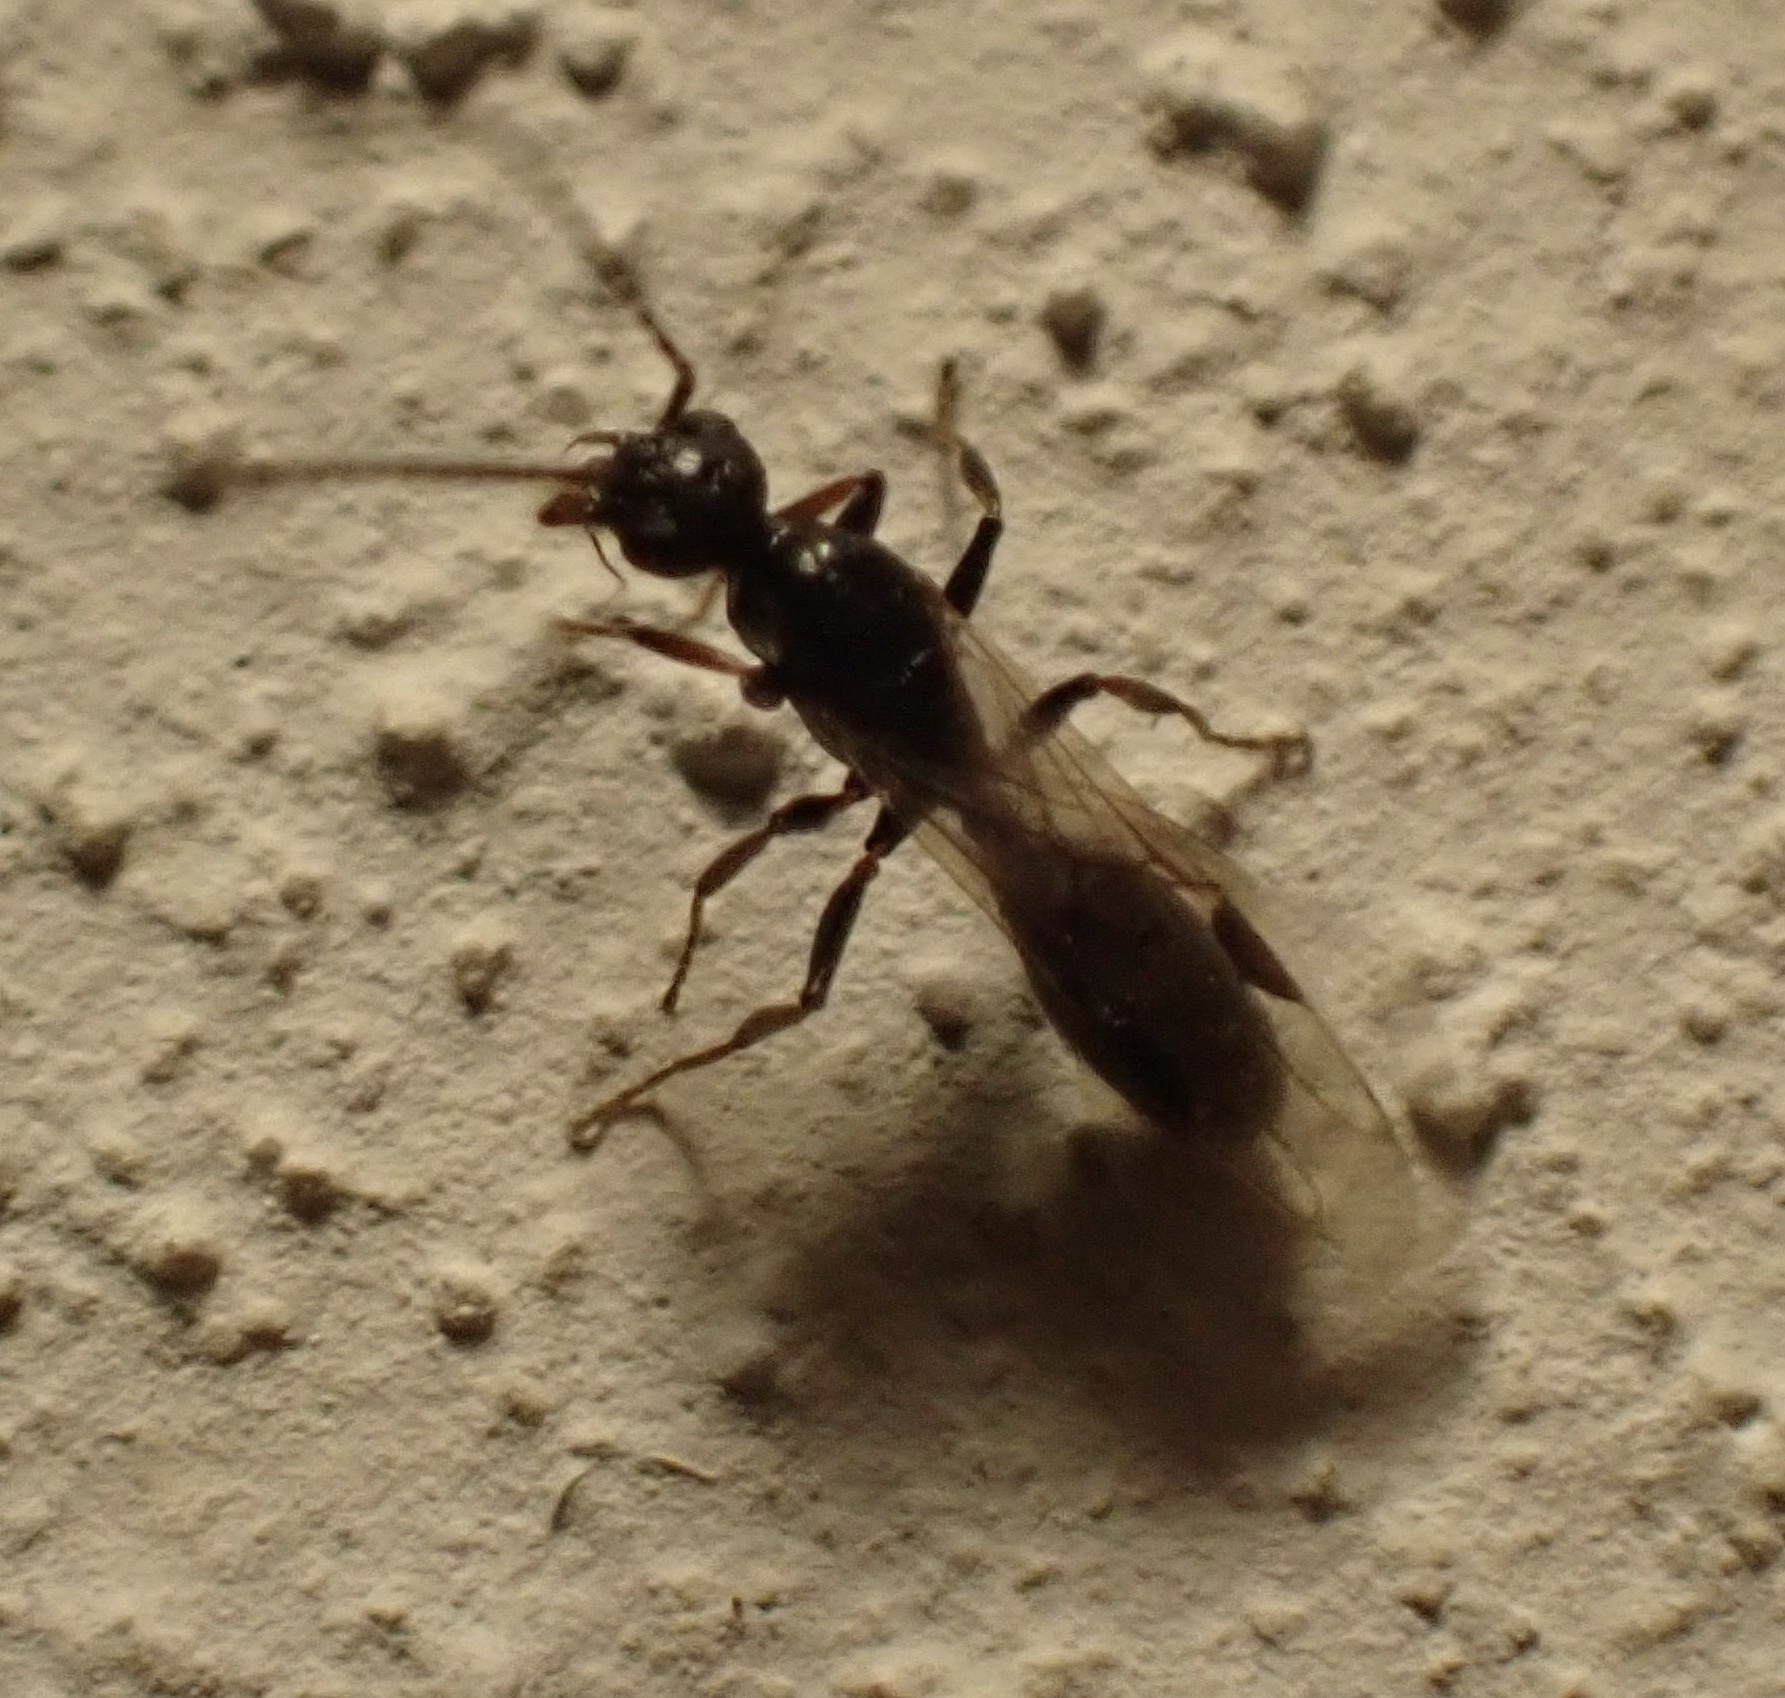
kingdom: Animalia
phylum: Arthropoda
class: Insecta
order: Hymenoptera
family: Formicidae
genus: Dolichoderus
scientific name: Dolichoderus quadripunctatus
